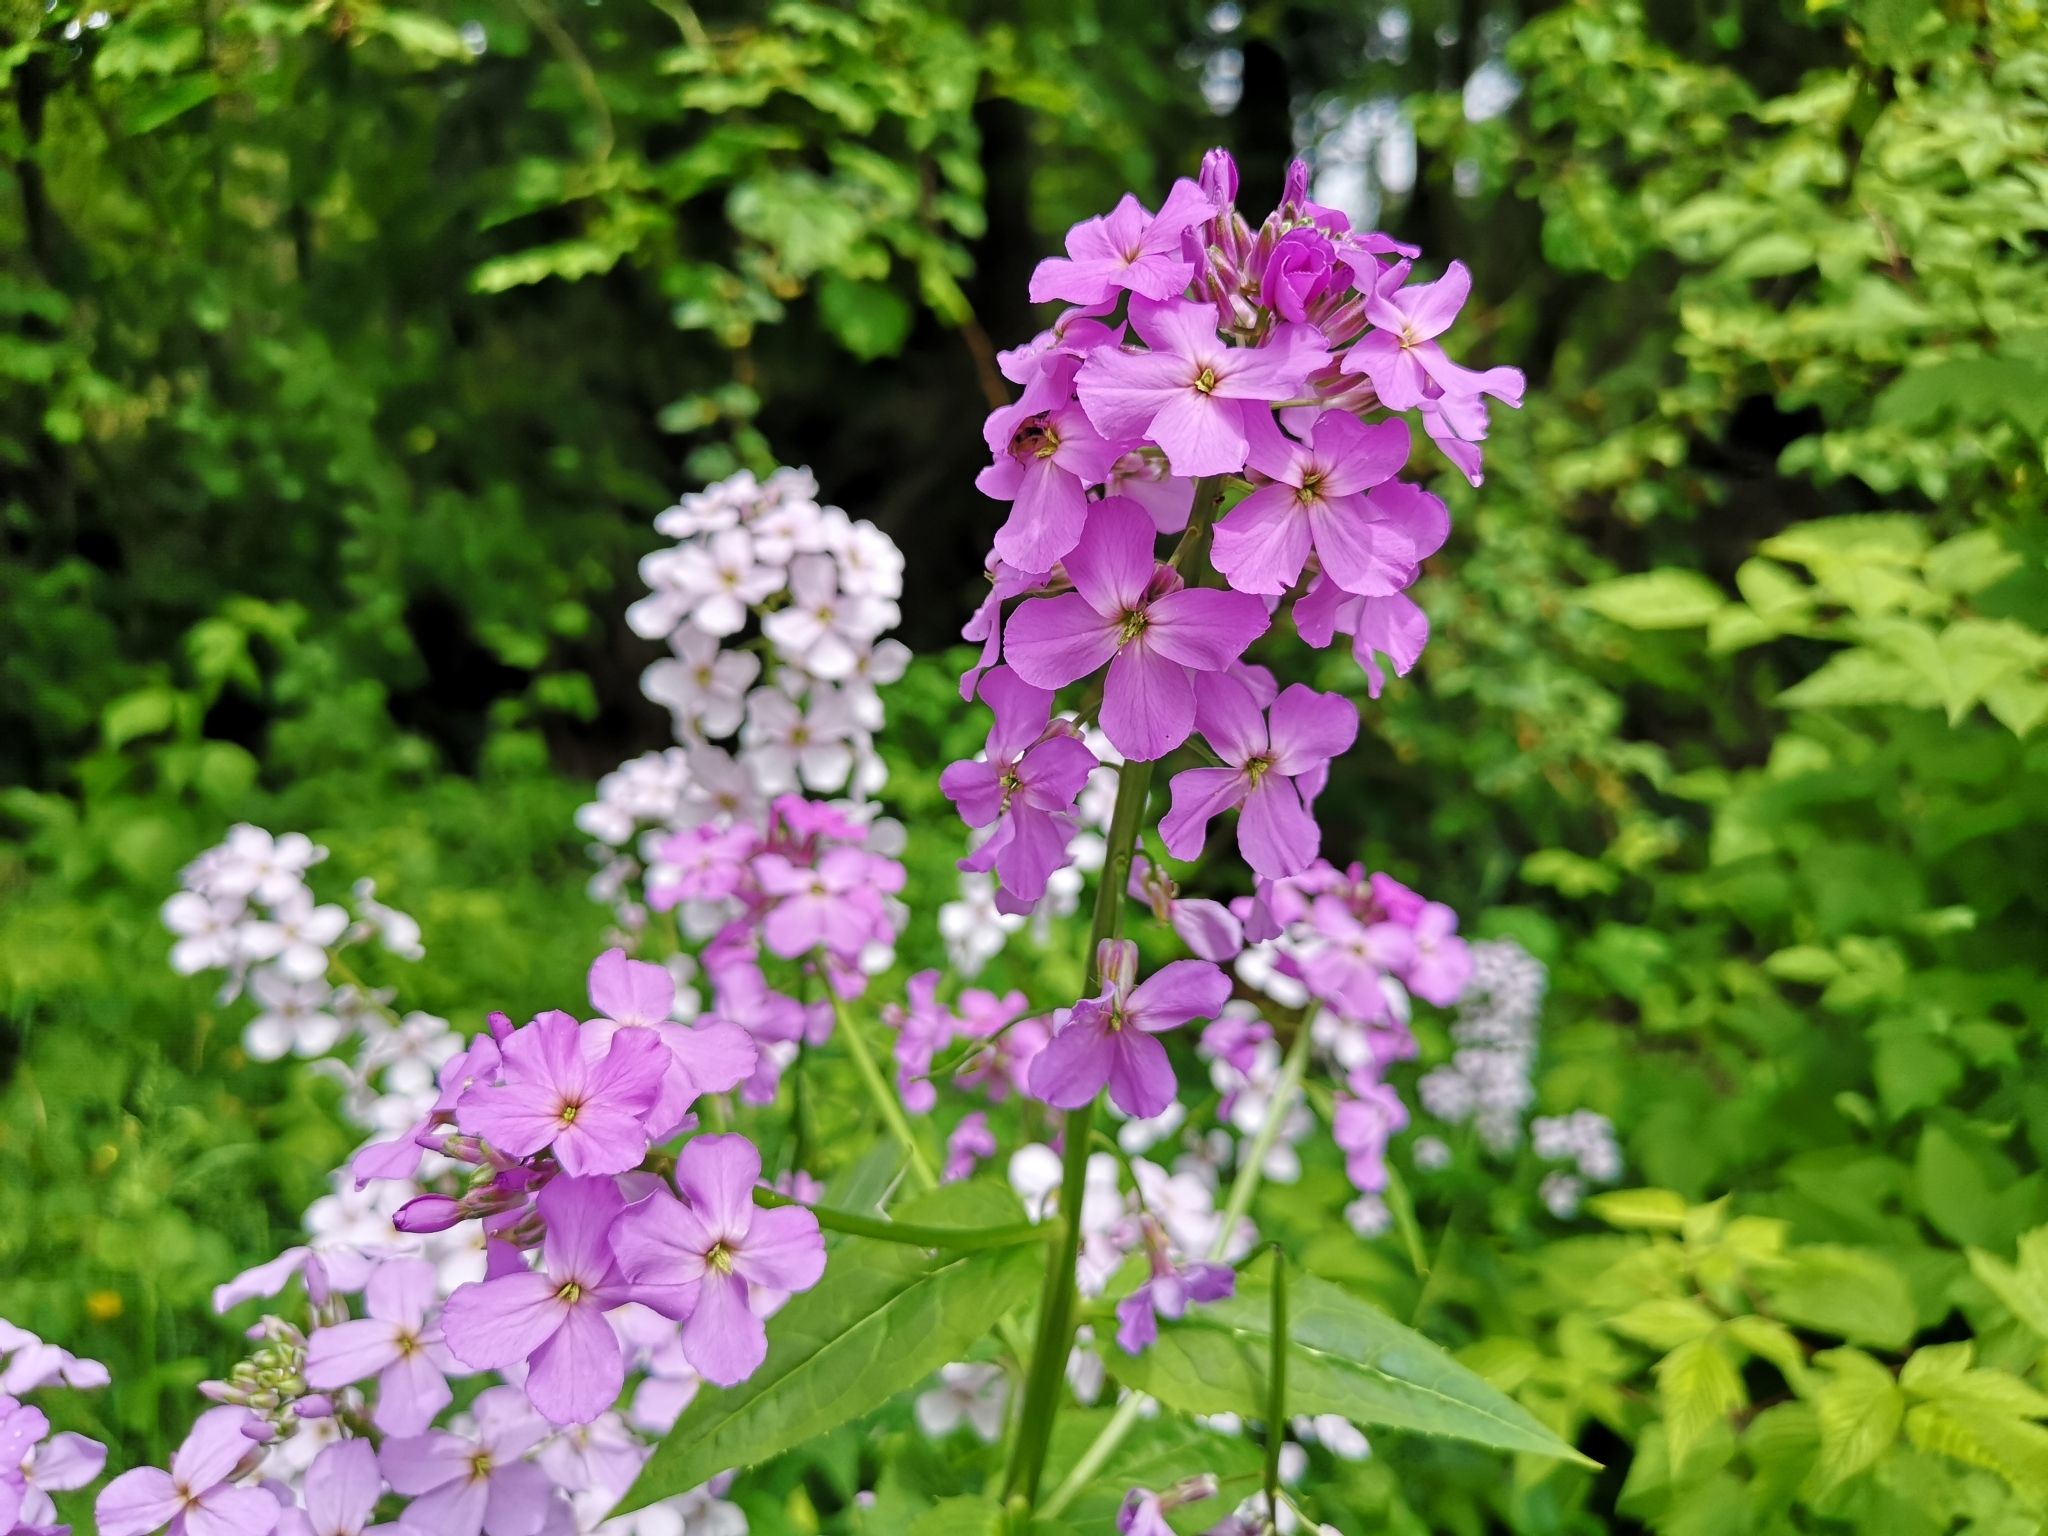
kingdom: Plantae
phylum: Tracheophyta
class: Magnoliopsida
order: Brassicales
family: Brassicaceae
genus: Hesperis
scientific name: Hesperis matronalis
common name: Dame's-violet
